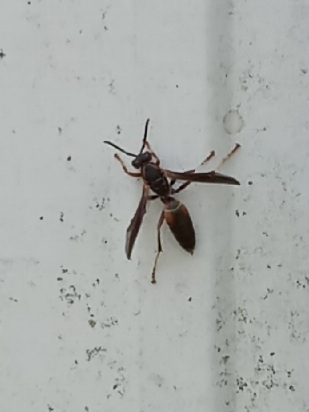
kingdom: Animalia
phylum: Arthropoda
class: Insecta
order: Hymenoptera
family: Eumenidae
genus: Polistes
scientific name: Polistes fuscatus
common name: Dark paper wasp
